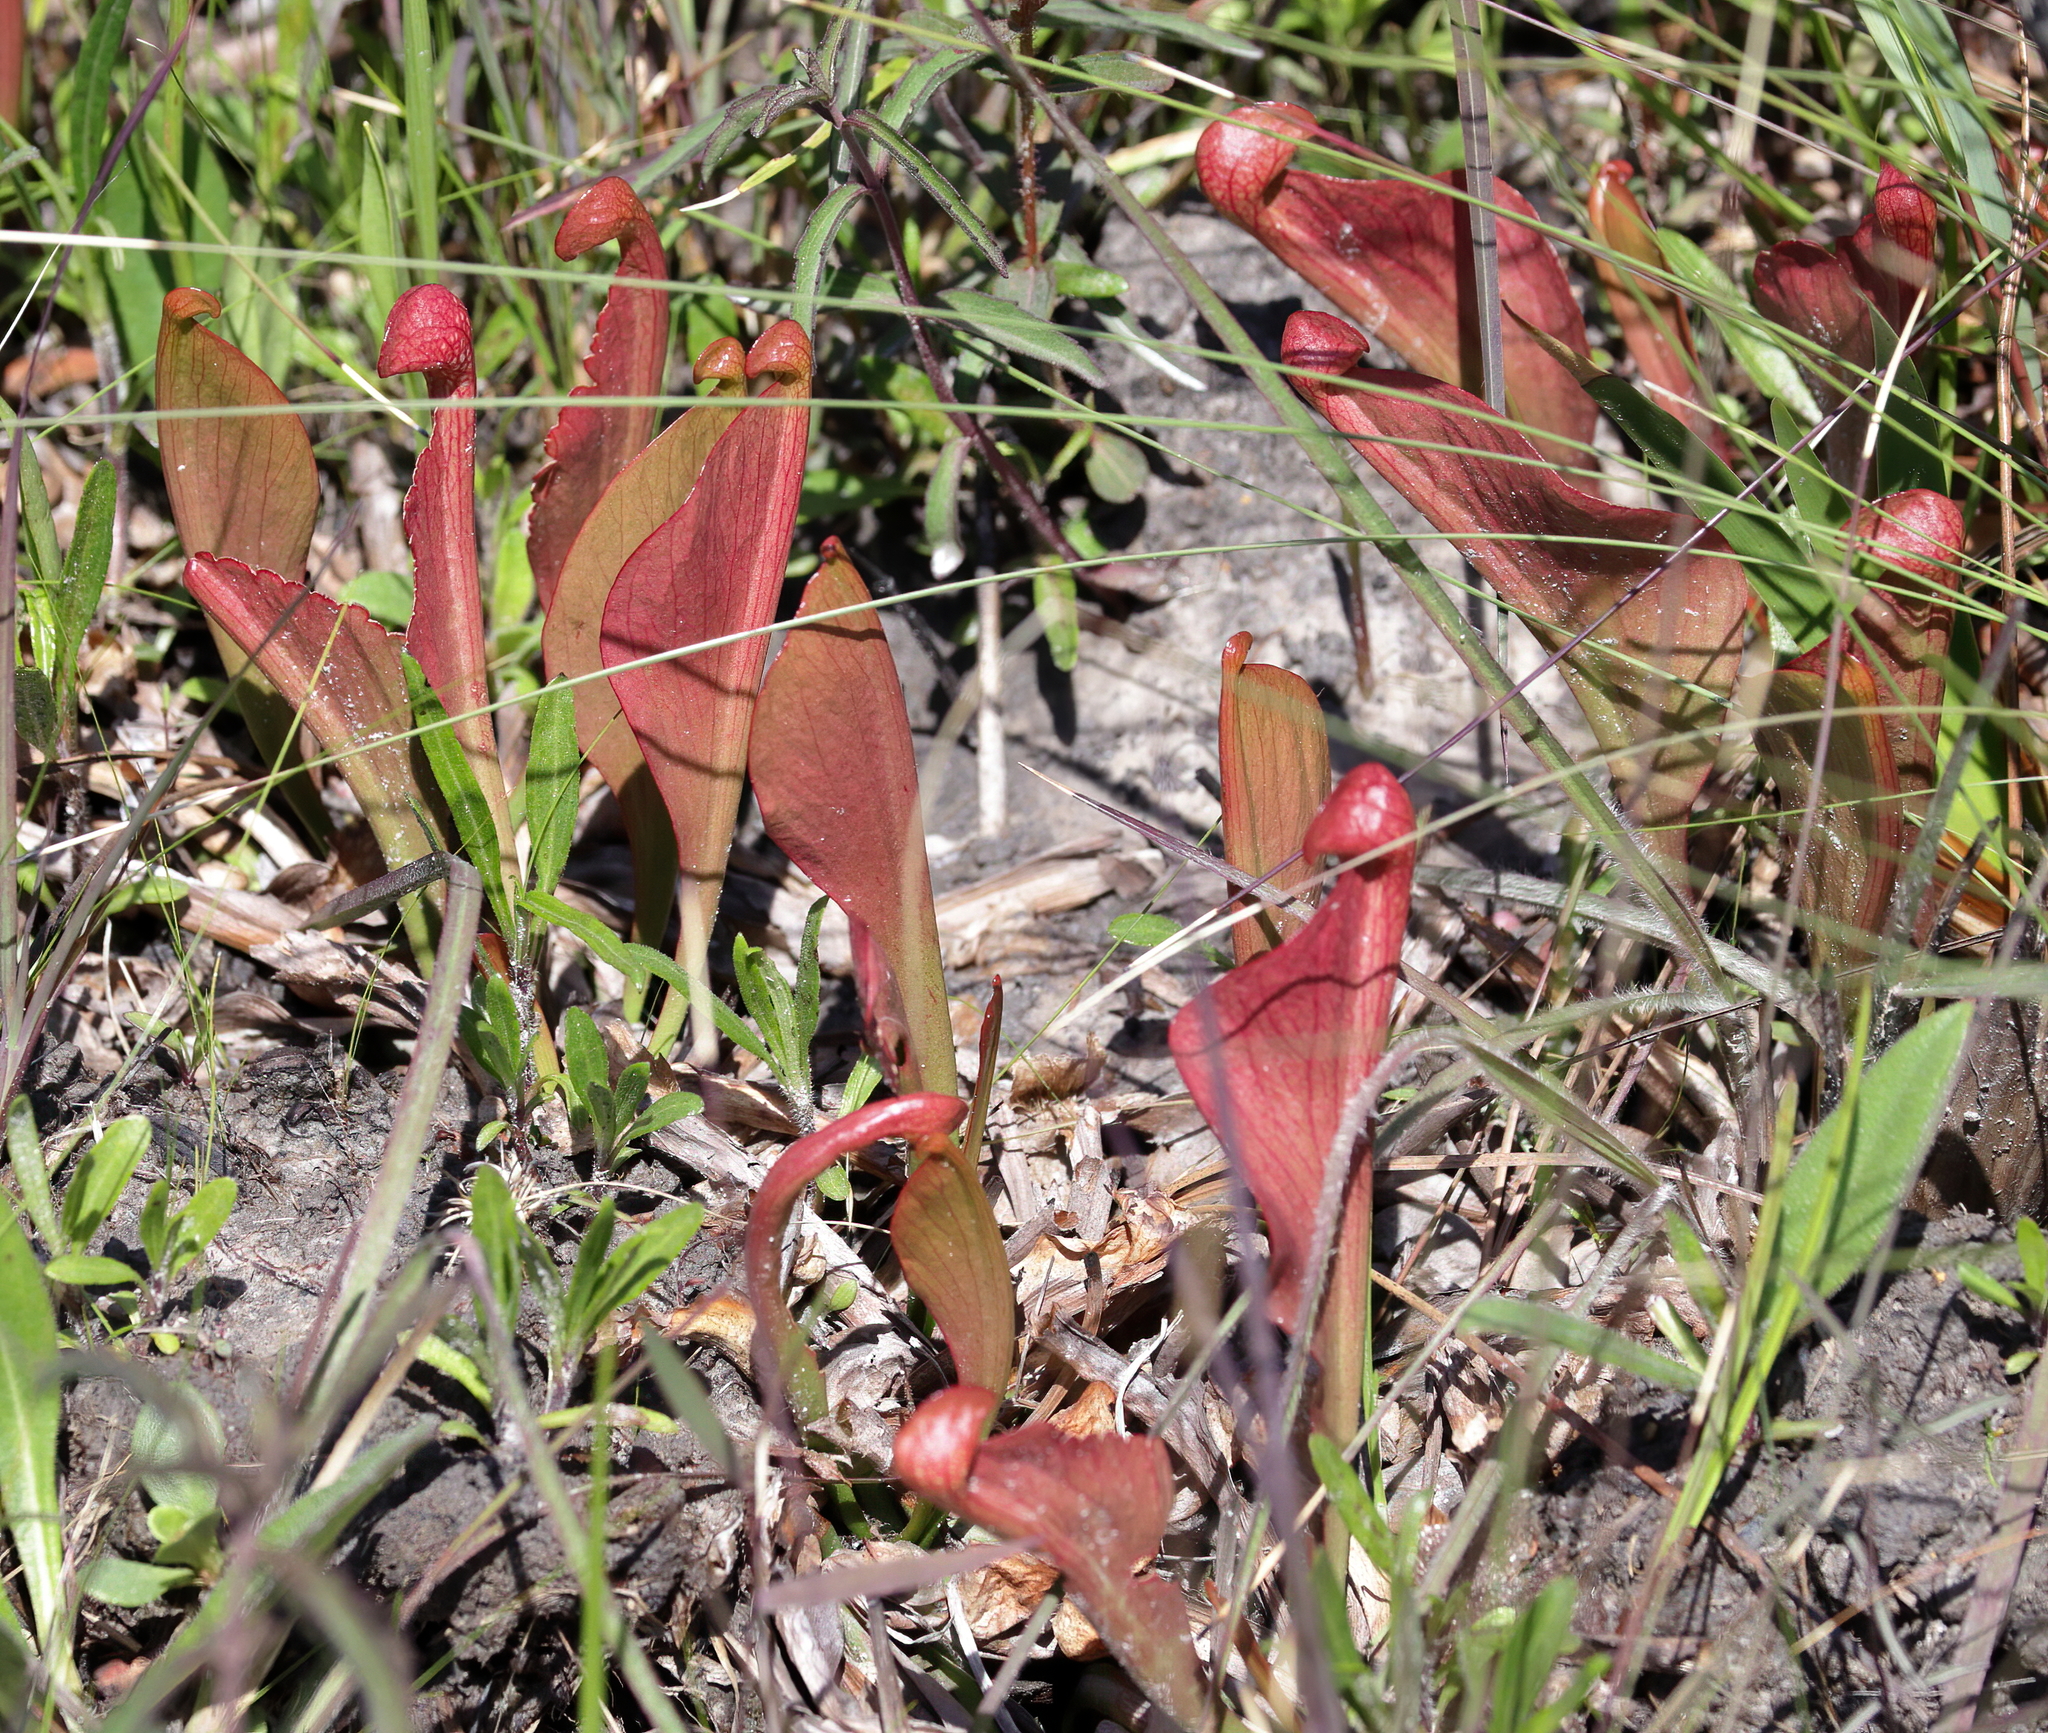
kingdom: Plantae
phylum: Tracheophyta
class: Magnoliopsida
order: Ericales
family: Sarraceniaceae
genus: Sarracenia
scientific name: Sarracenia psittacina
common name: Parrot pitcherplant
